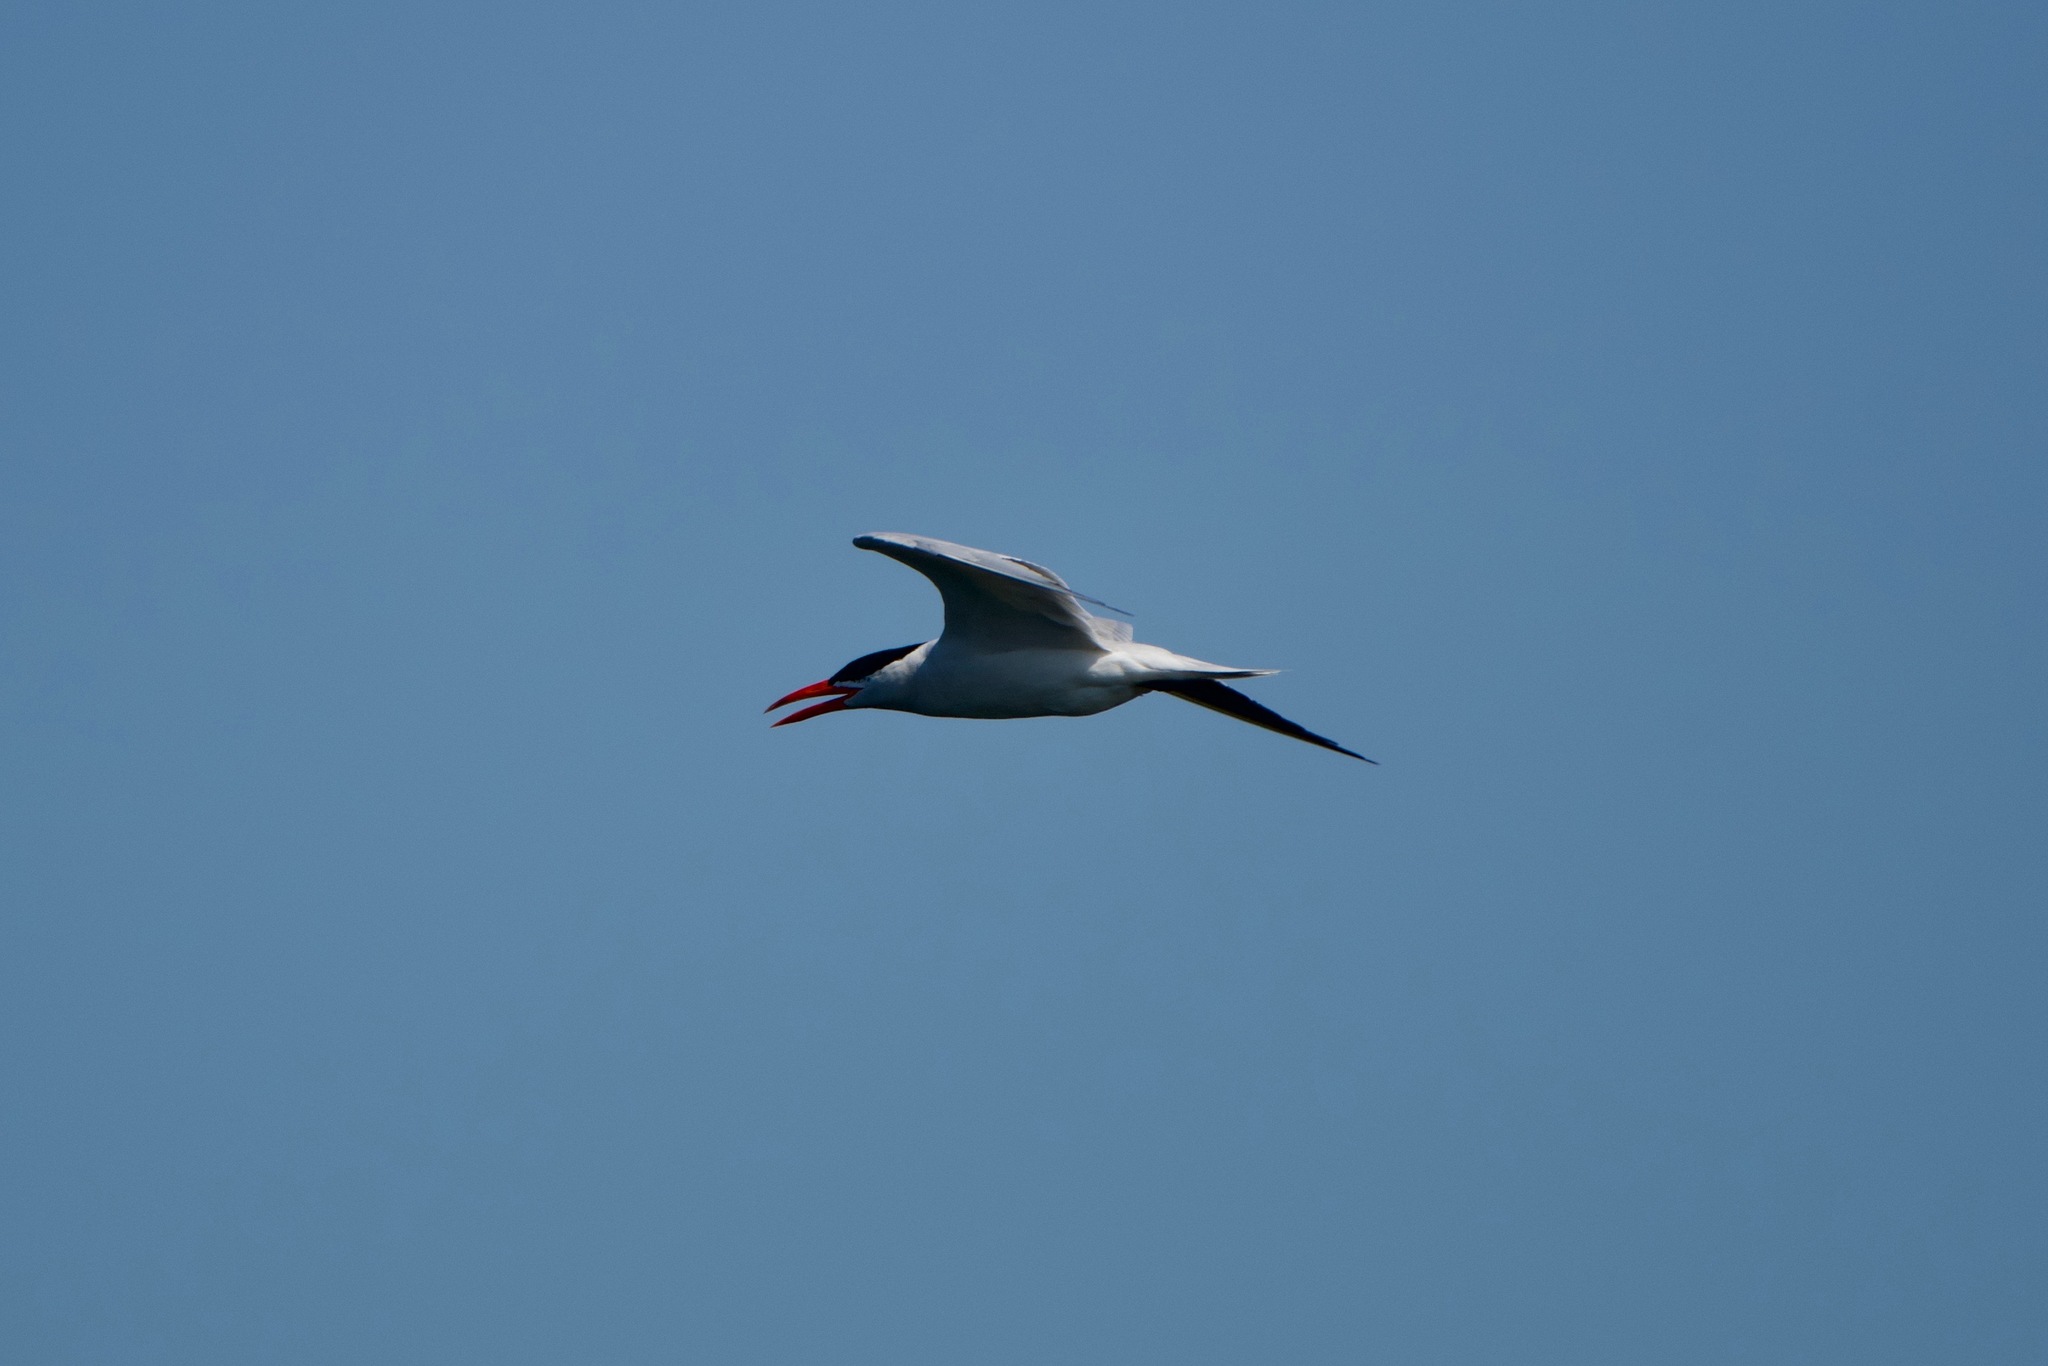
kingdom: Animalia
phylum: Chordata
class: Aves
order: Charadriiformes
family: Laridae
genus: Hydroprogne
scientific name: Hydroprogne caspia
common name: Caspian tern
